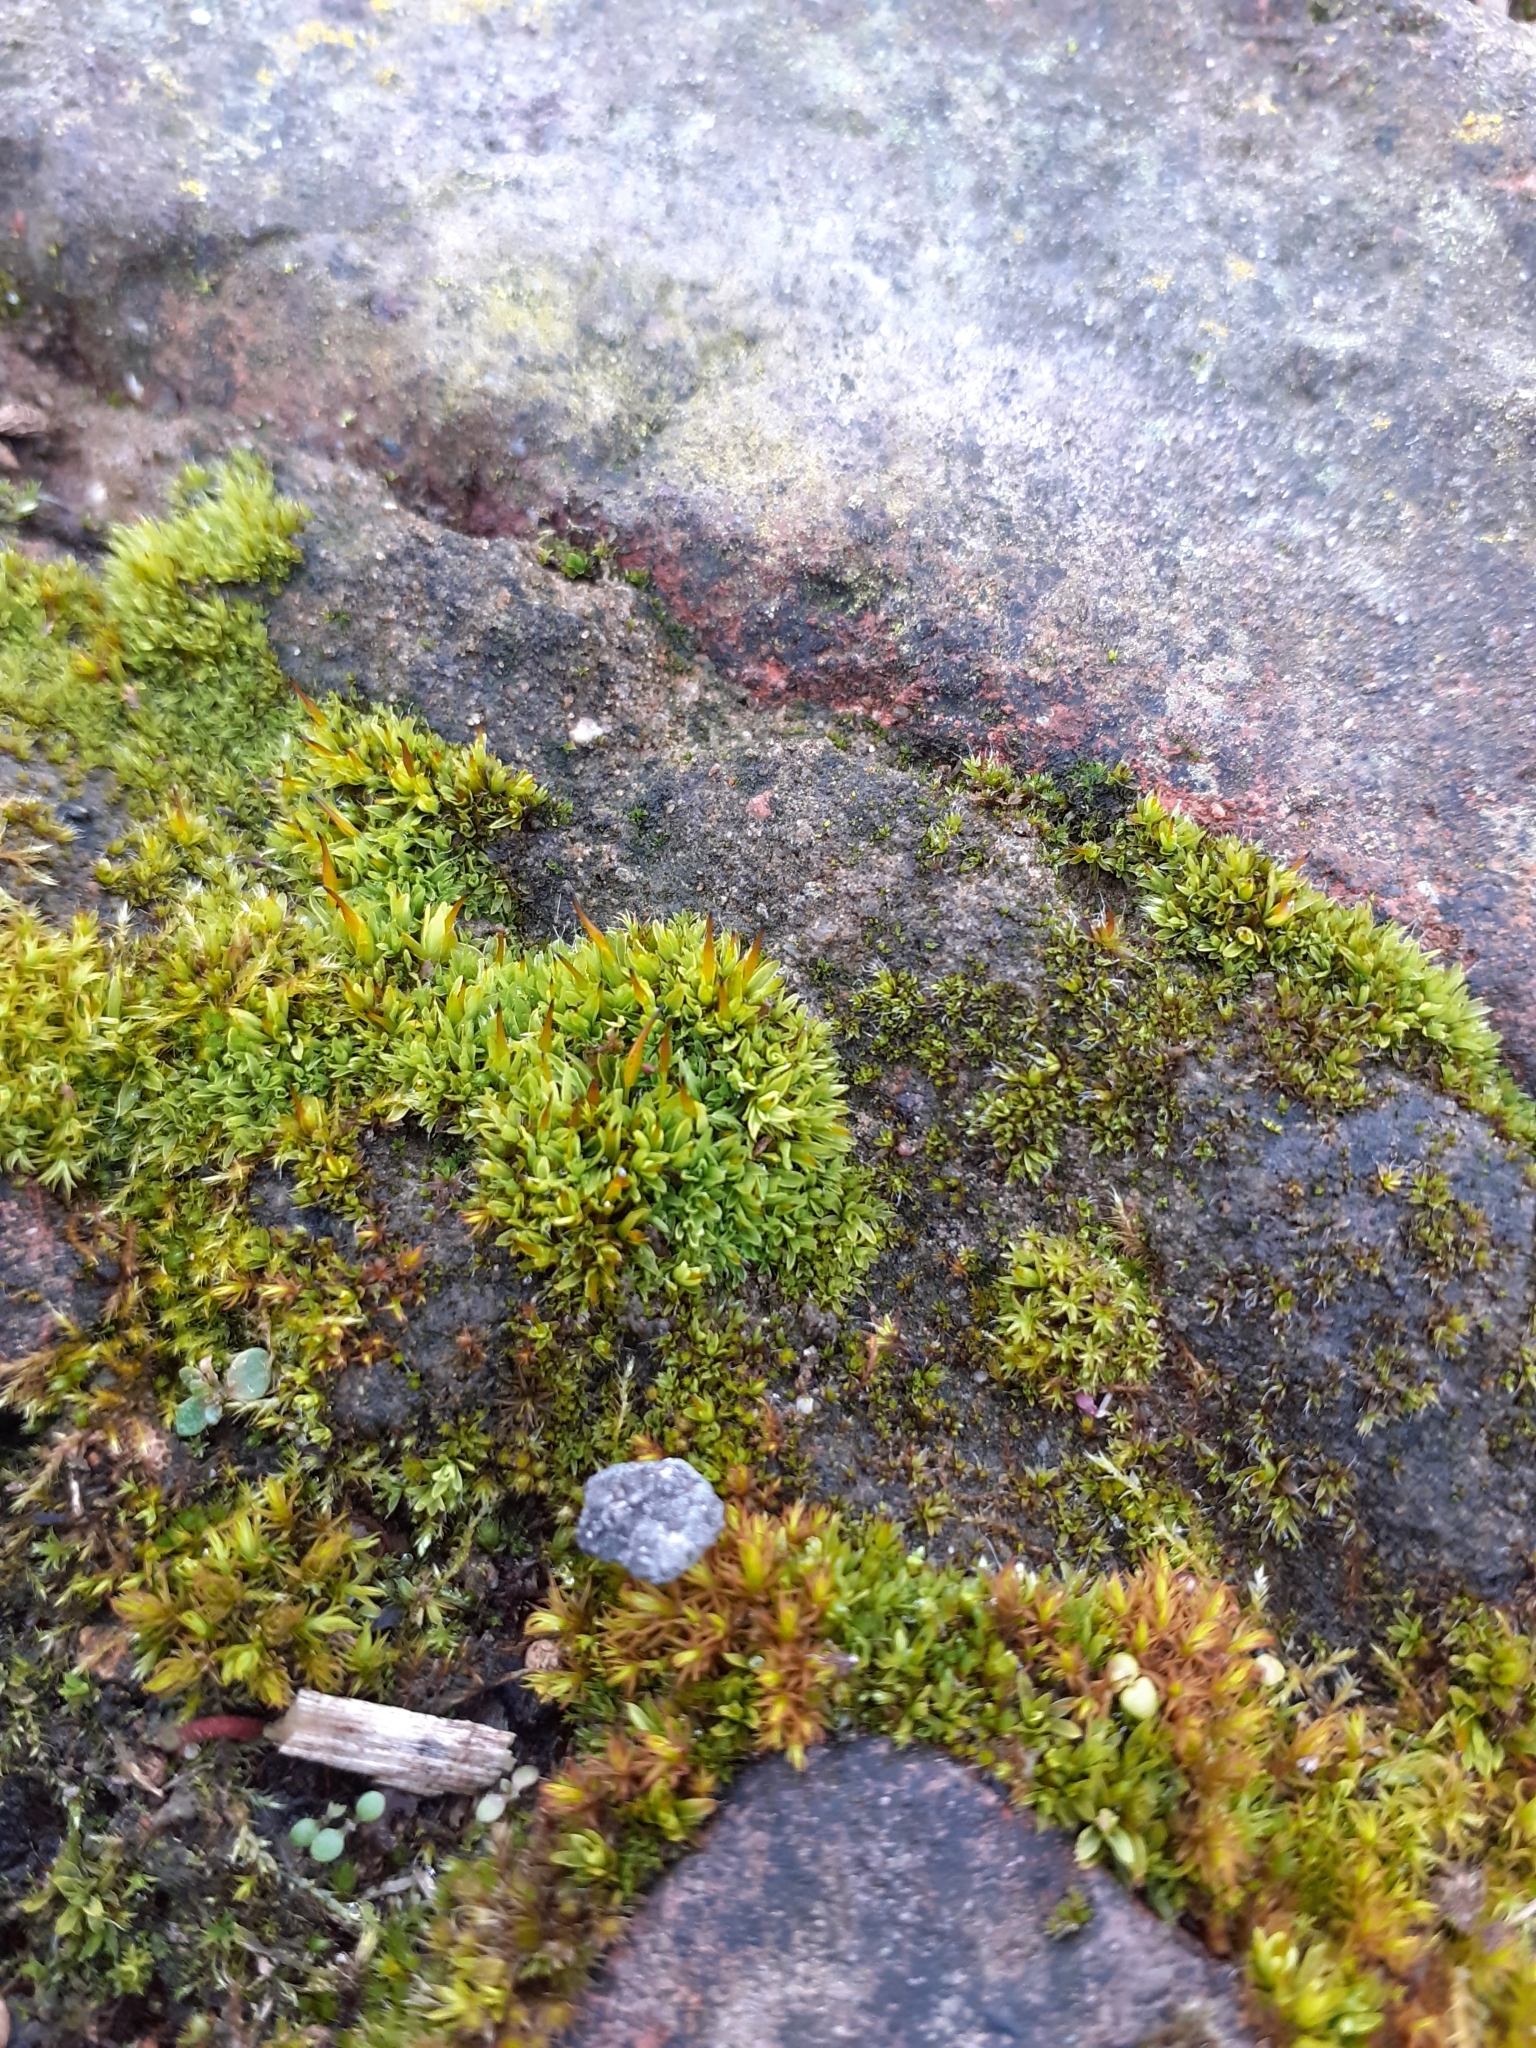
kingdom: Plantae
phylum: Bryophyta
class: Bryopsida
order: Pottiales
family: Pottiaceae
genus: Tortula
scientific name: Tortula muralis
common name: Wall screw-moss
